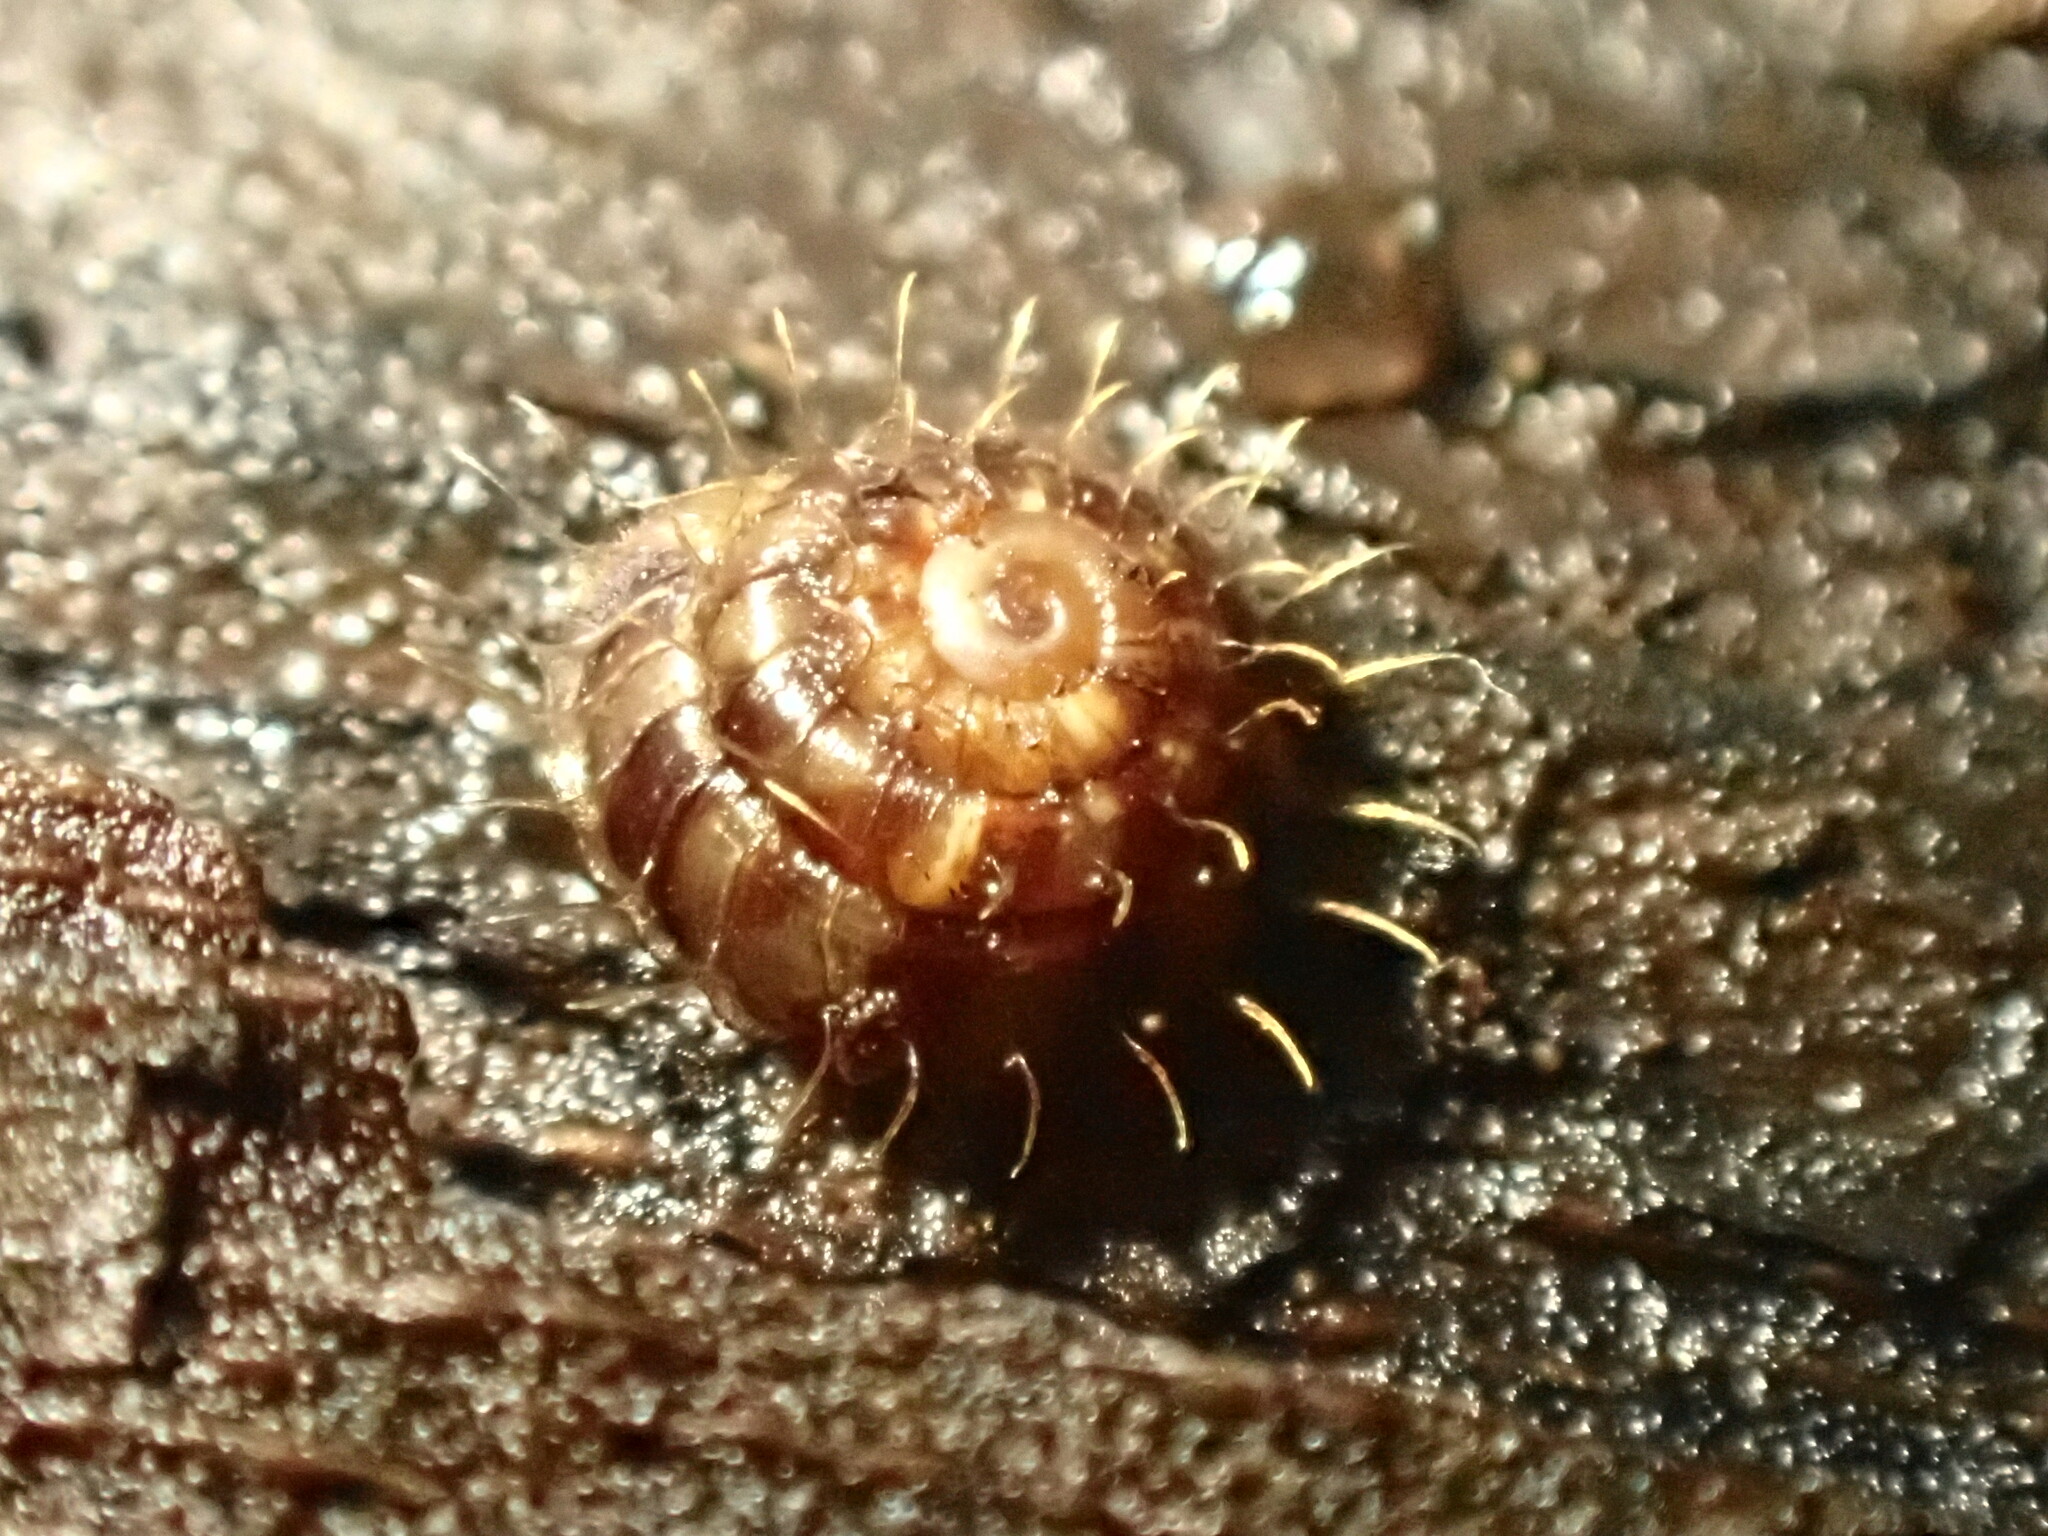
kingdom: Animalia
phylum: Mollusca
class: Gastropoda
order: Stylommatophora
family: Charopidae
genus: Aeschrodomus
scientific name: Aeschrodomus stipulata
